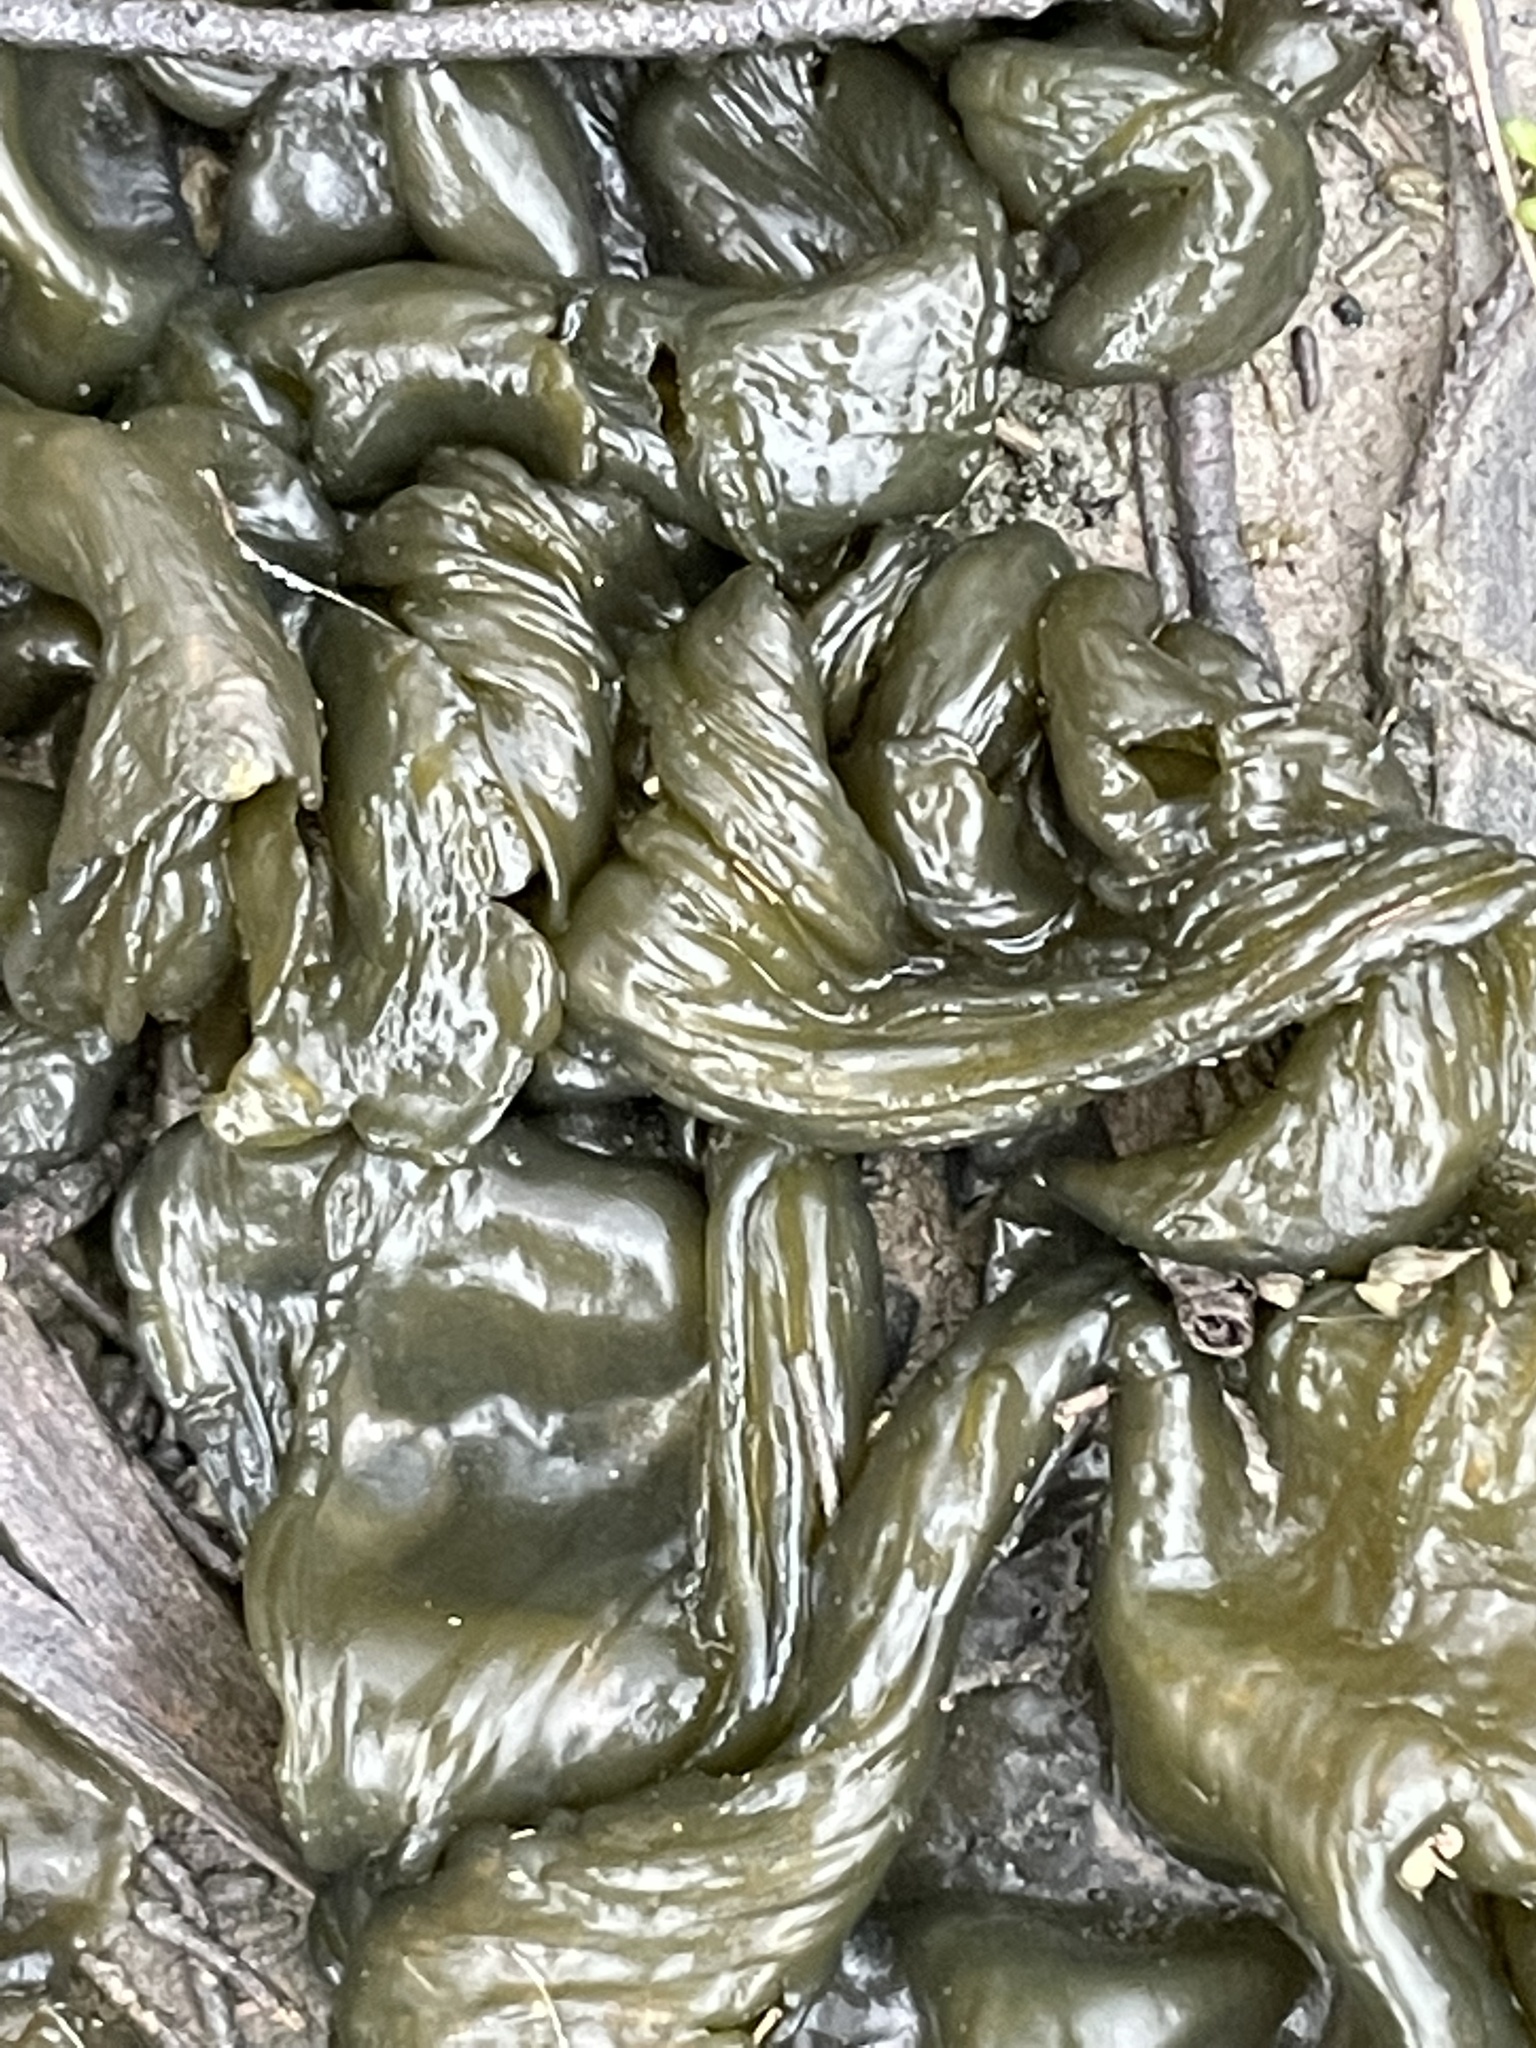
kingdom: Bacteria
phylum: Cyanobacteria
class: Cyanobacteriia
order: Cyanobacteriales
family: Nostocaceae
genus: Nostoc
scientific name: Nostoc commune
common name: Star jelly
